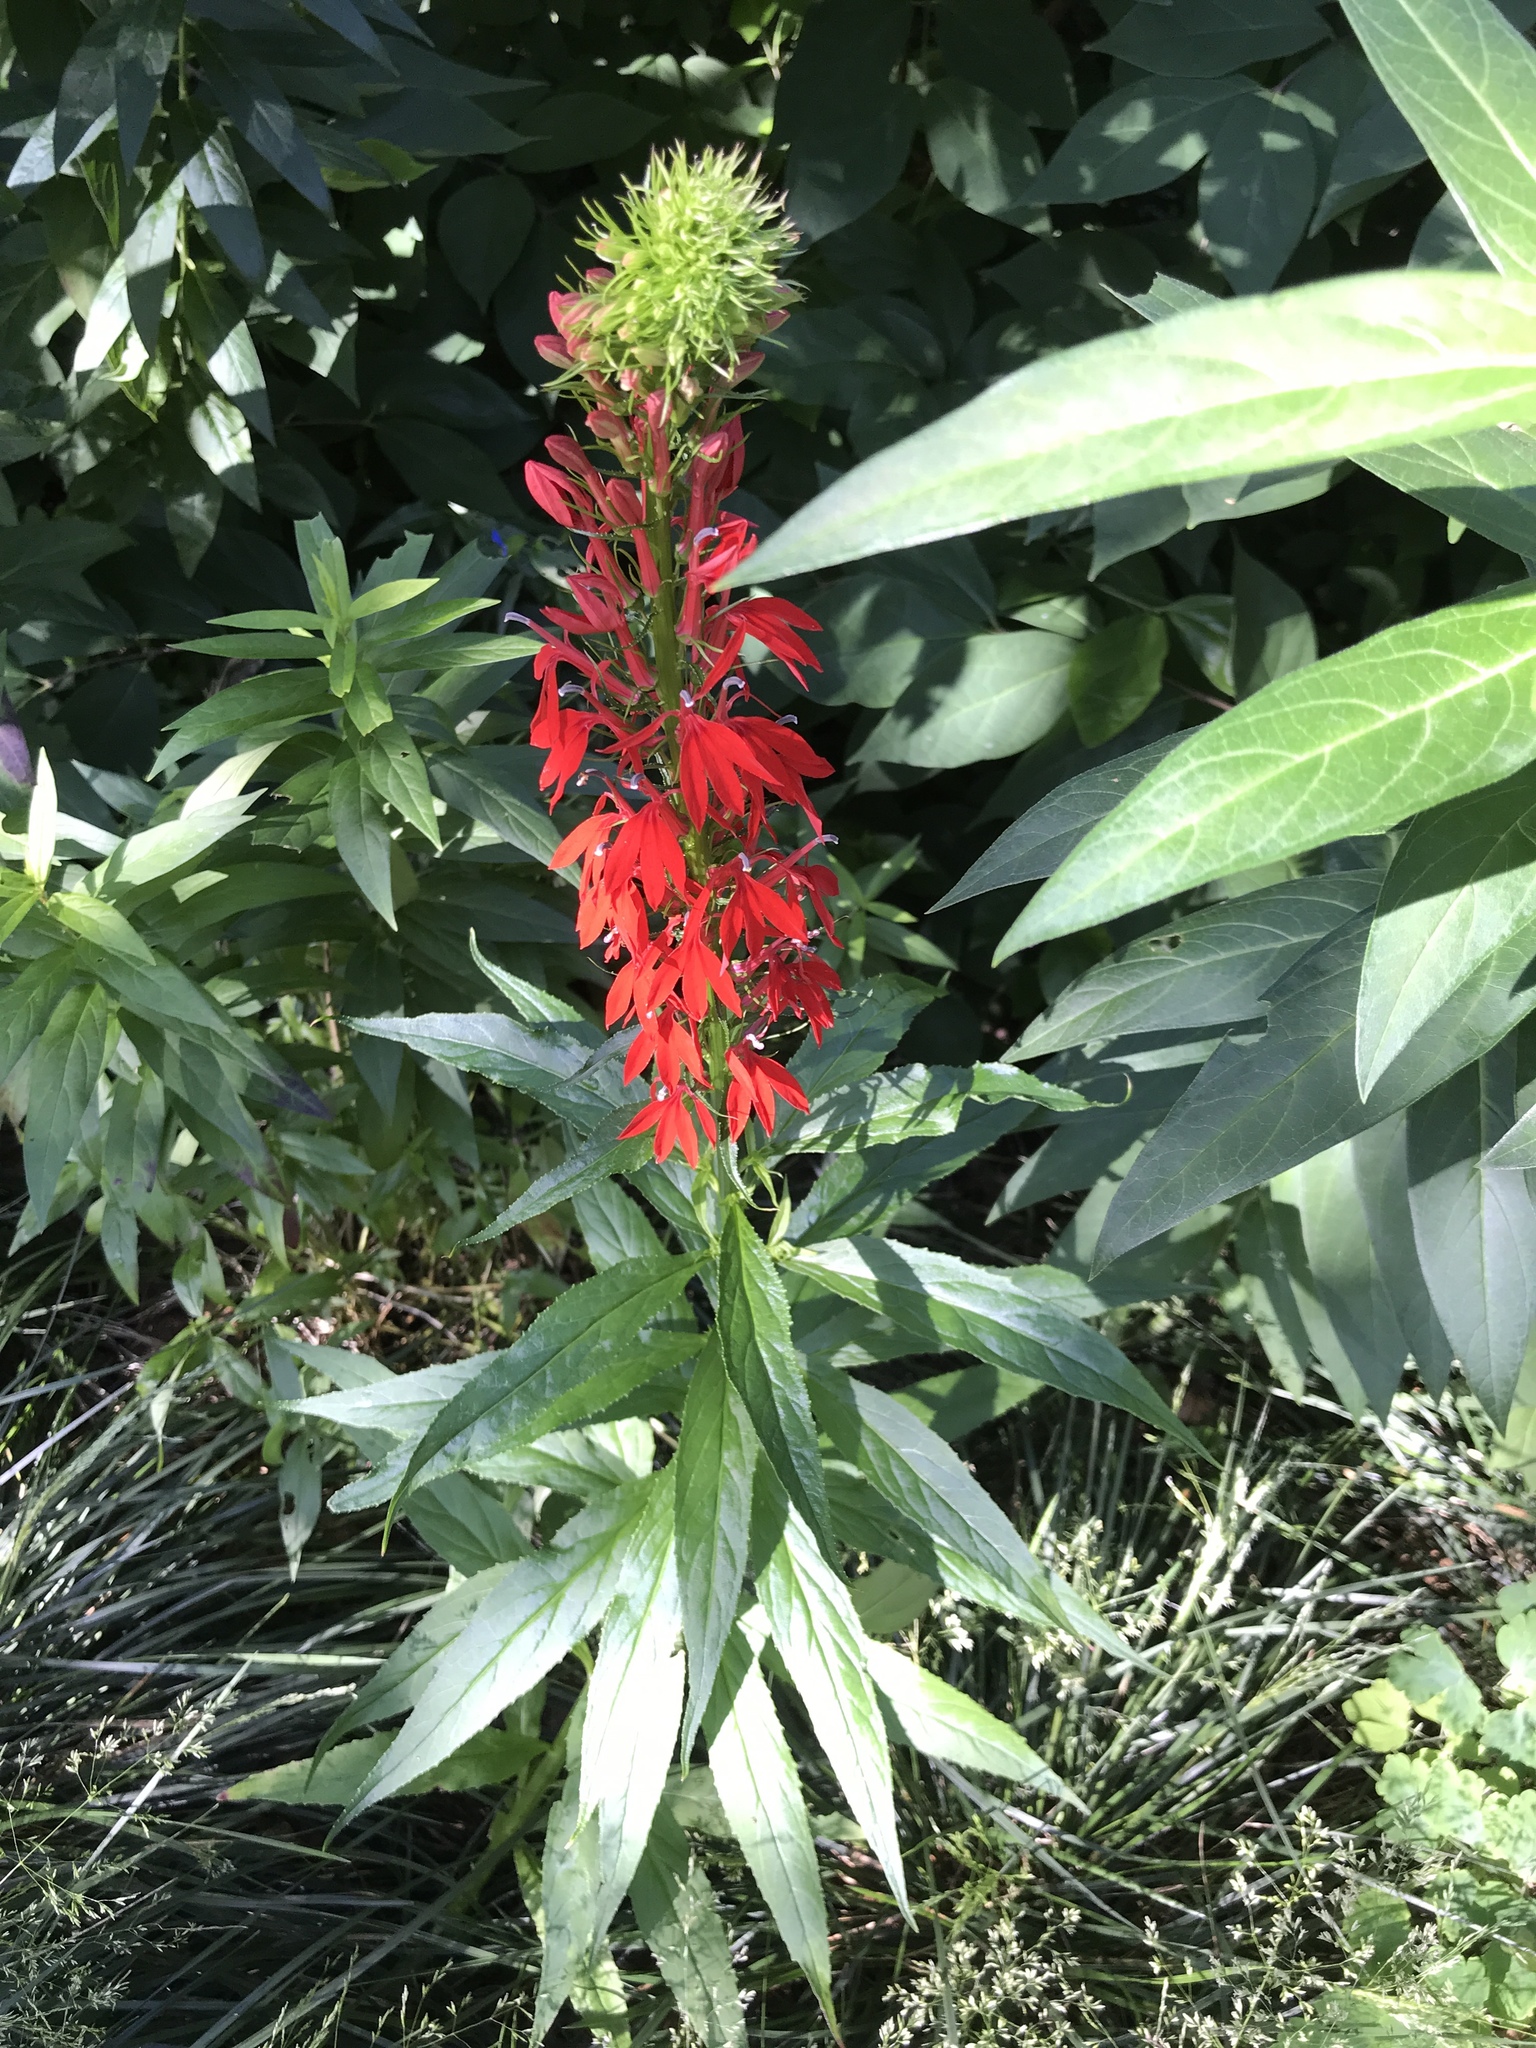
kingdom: Plantae
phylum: Tracheophyta
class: Magnoliopsida
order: Asterales
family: Campanulaceae
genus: Lobelia
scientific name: Lobelia cardinalis
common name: Cardinal flower
